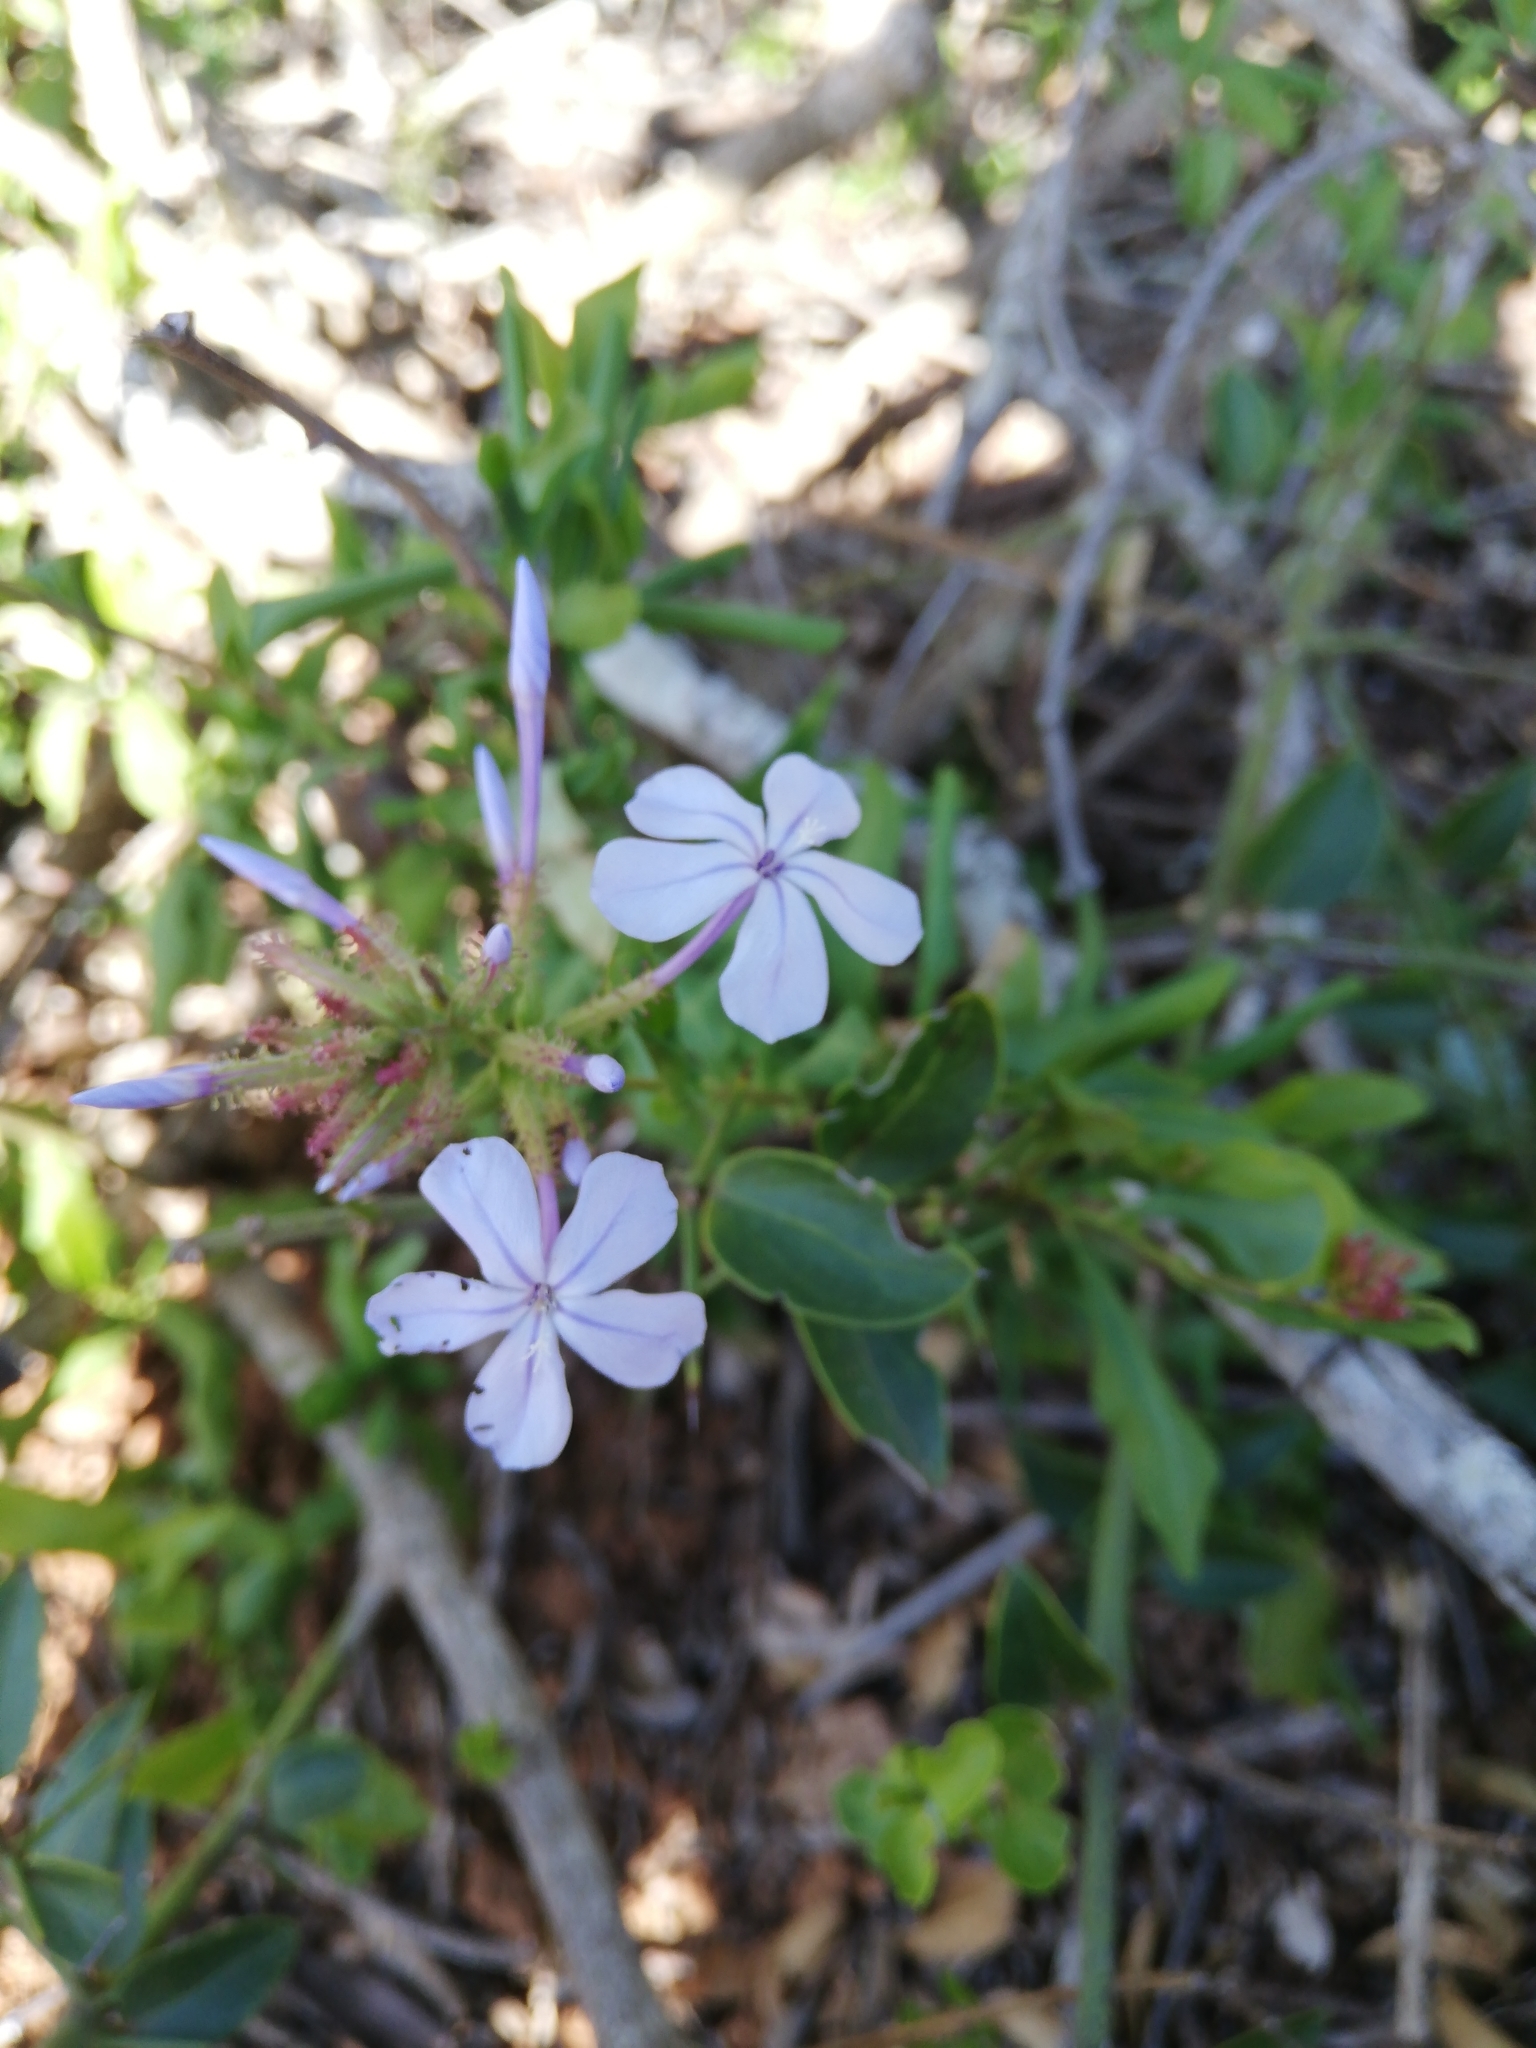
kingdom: Plantae
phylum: Tracheophyta
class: Magnoliopsida
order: Caryophyllales
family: Plumbaginaceae
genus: Plumbago
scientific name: Plumbago auriculata
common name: Cape leadwort
